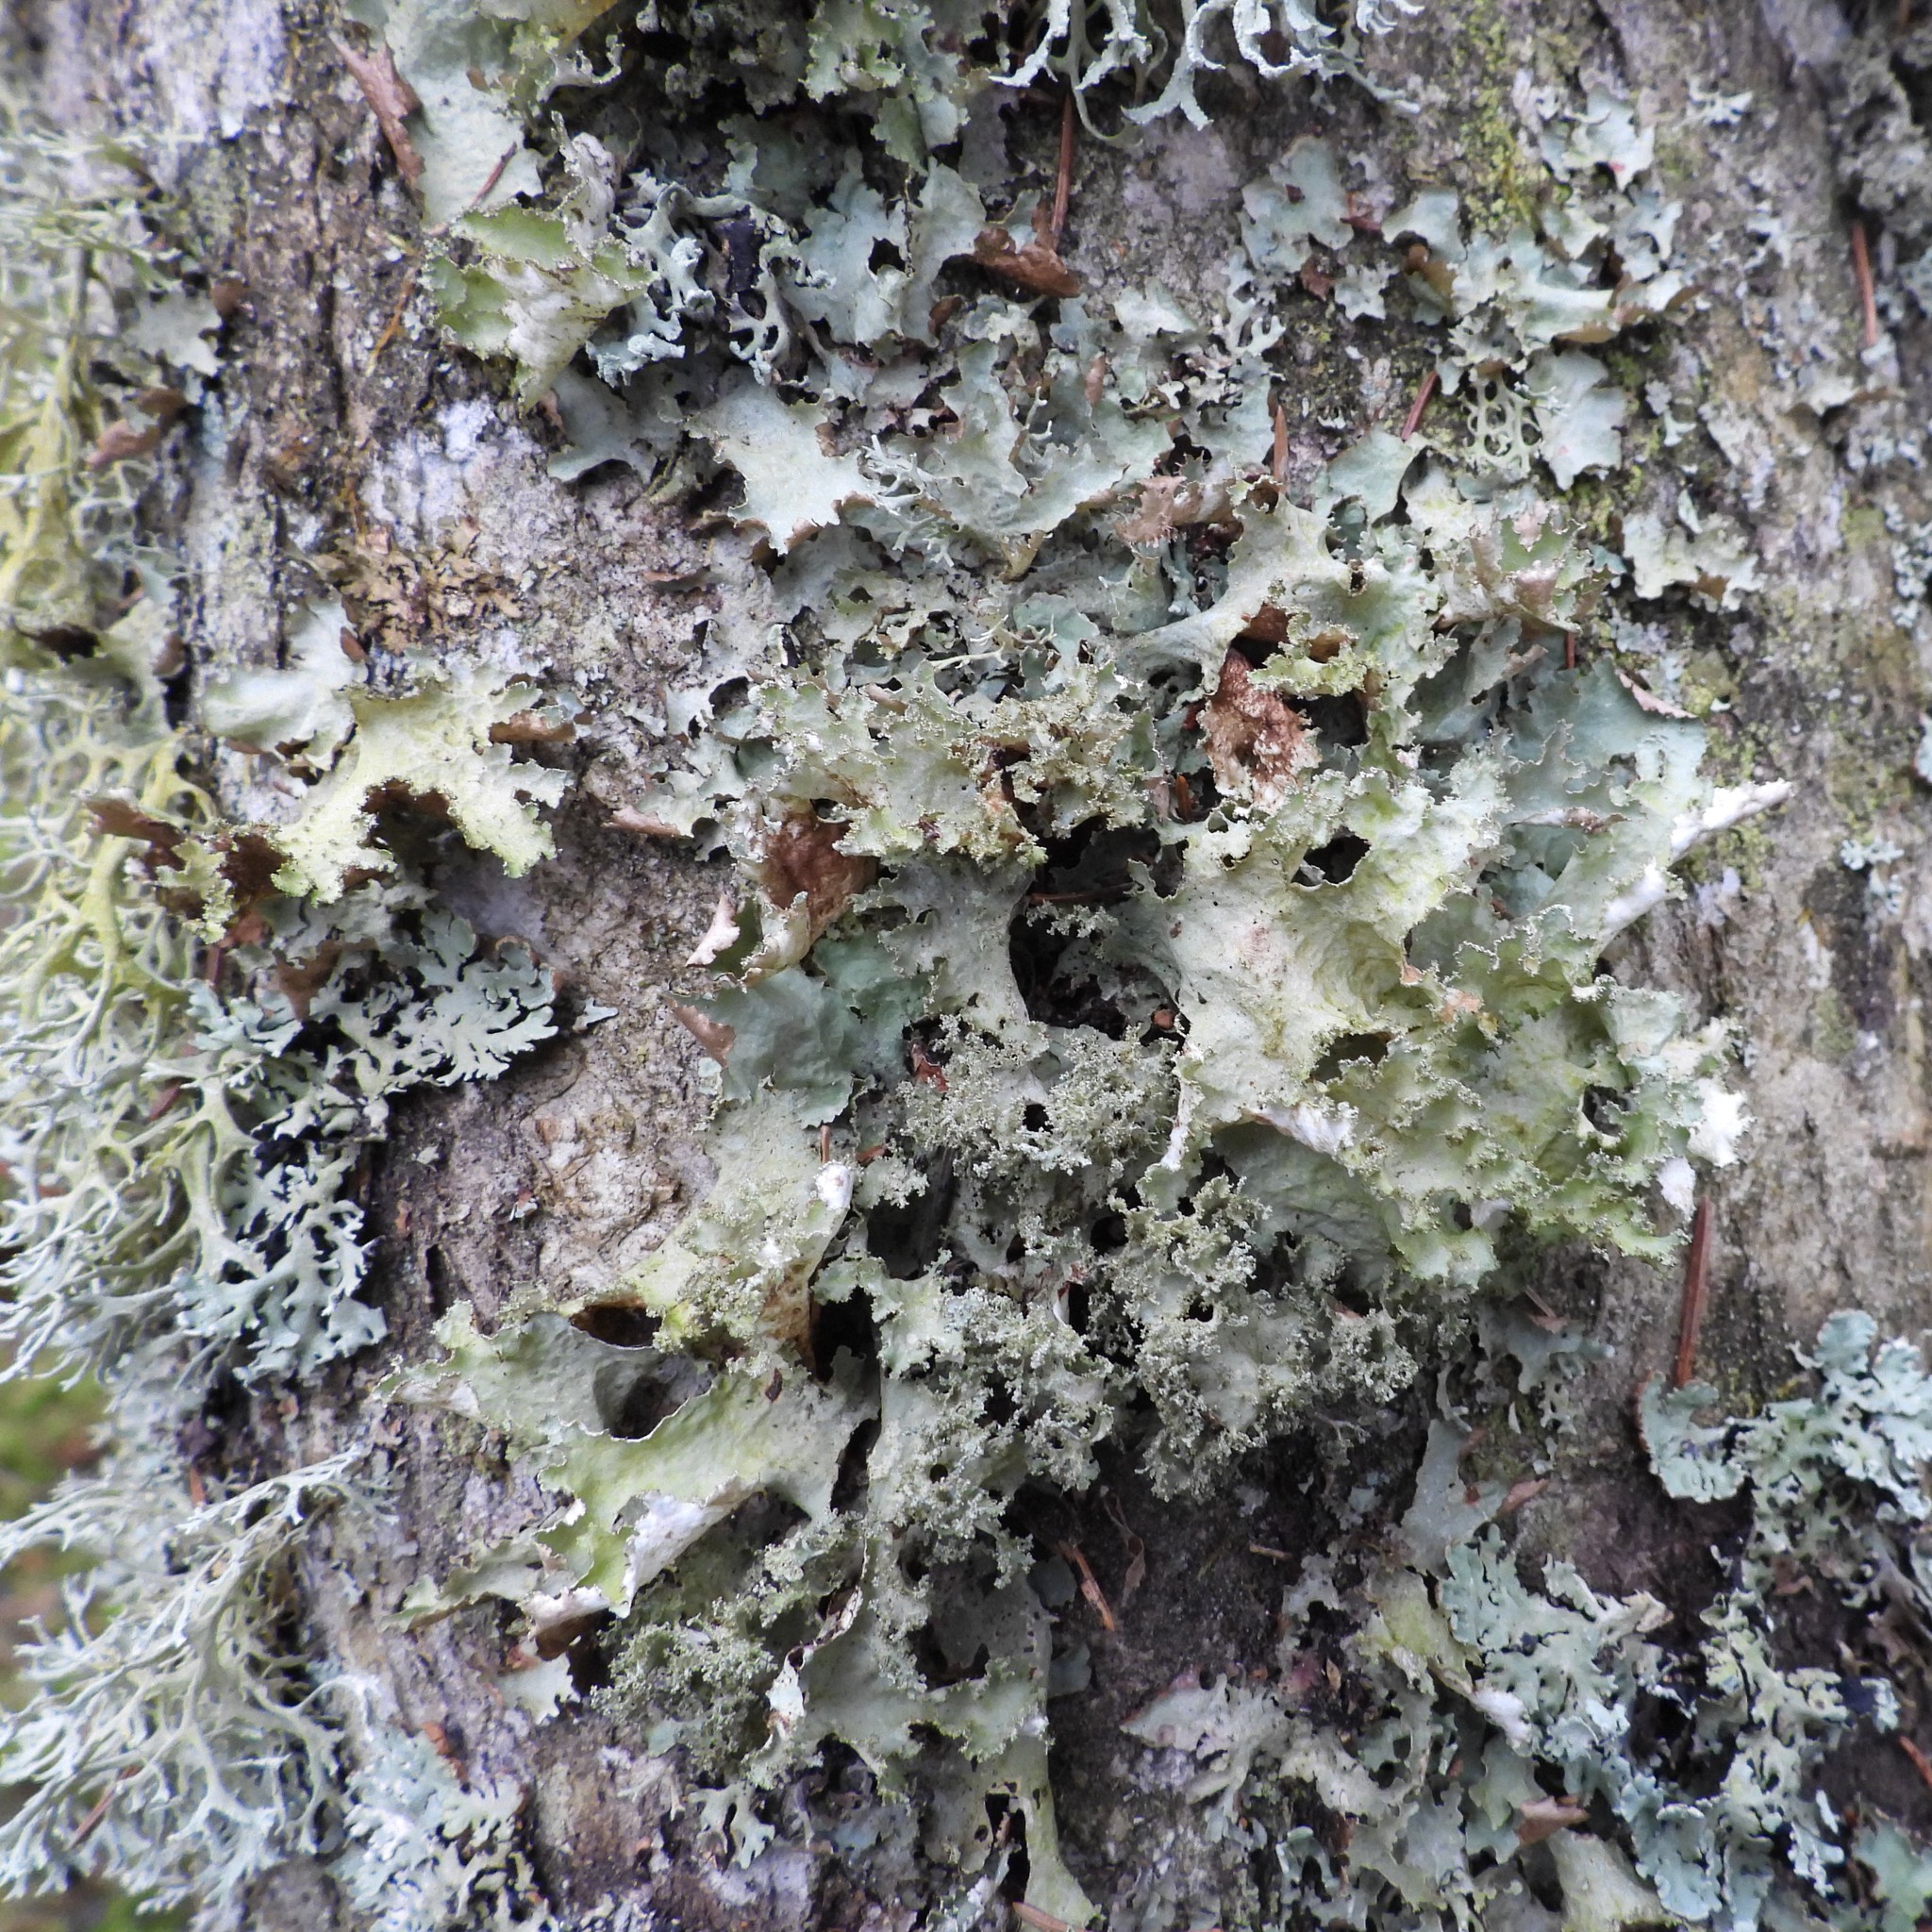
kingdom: Fungi
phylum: Ascomycota
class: Lecanoromycetes
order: Lecanorales
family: Parmeliaceae
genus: Platismatia
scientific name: Platismatia glauca
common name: Varied rag lichen
